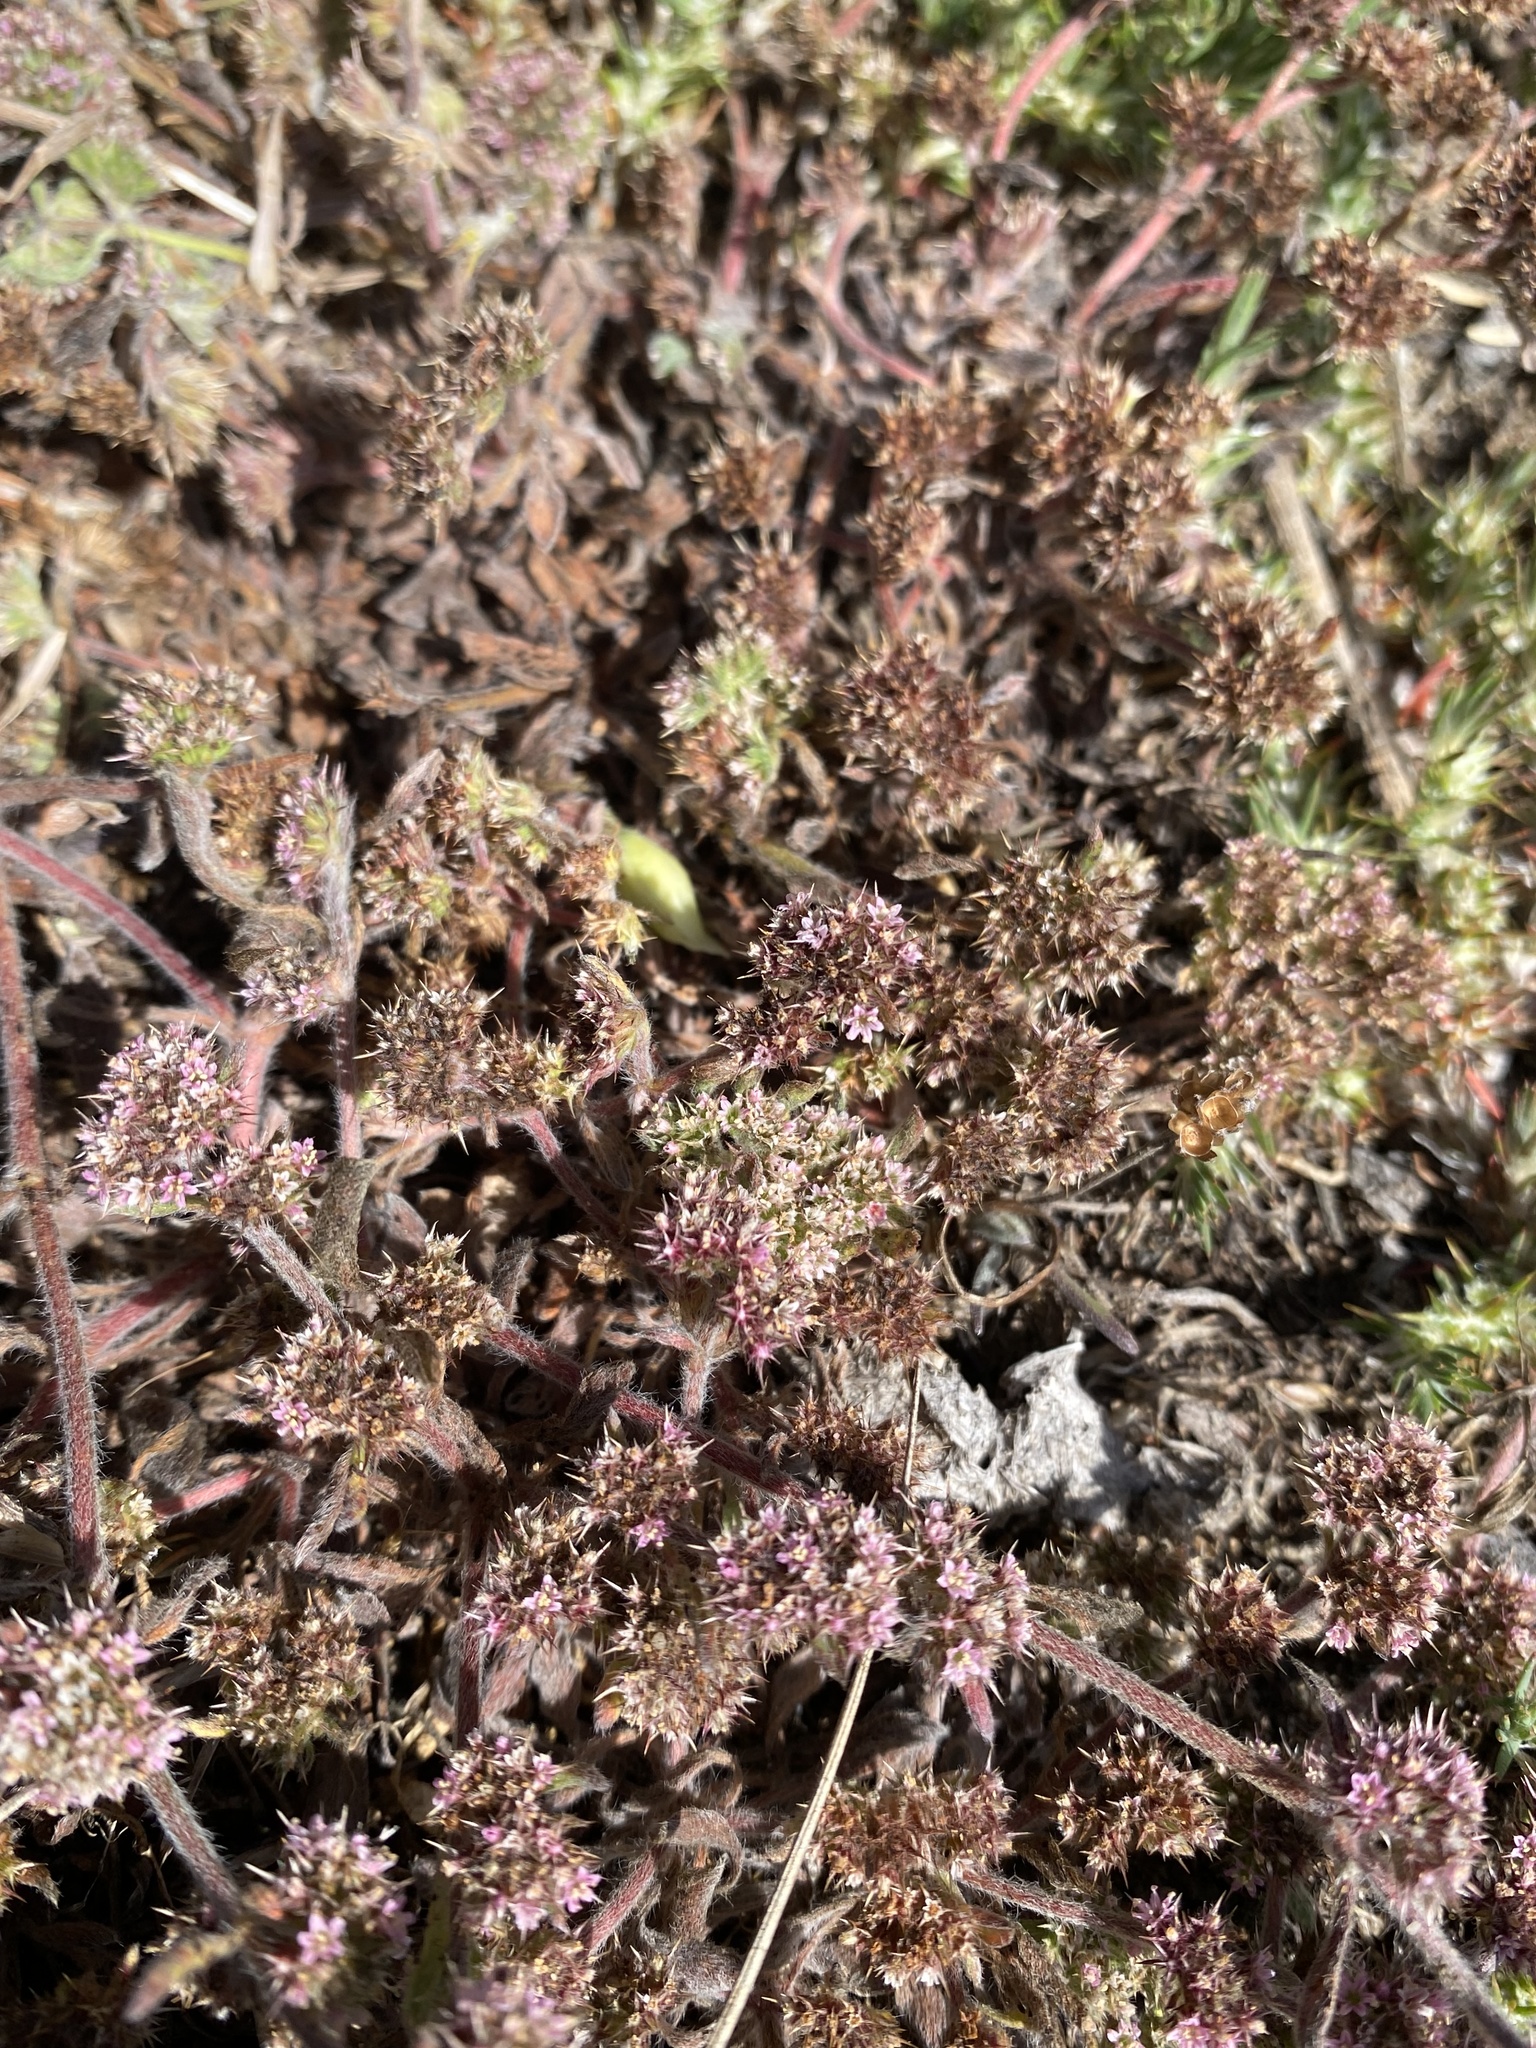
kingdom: Plantae
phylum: Tracheophyta
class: Magnoliopsida
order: Caryophyllales
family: Polygonaceae
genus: Chorizanthe
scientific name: Chorizanthe cuspidata
